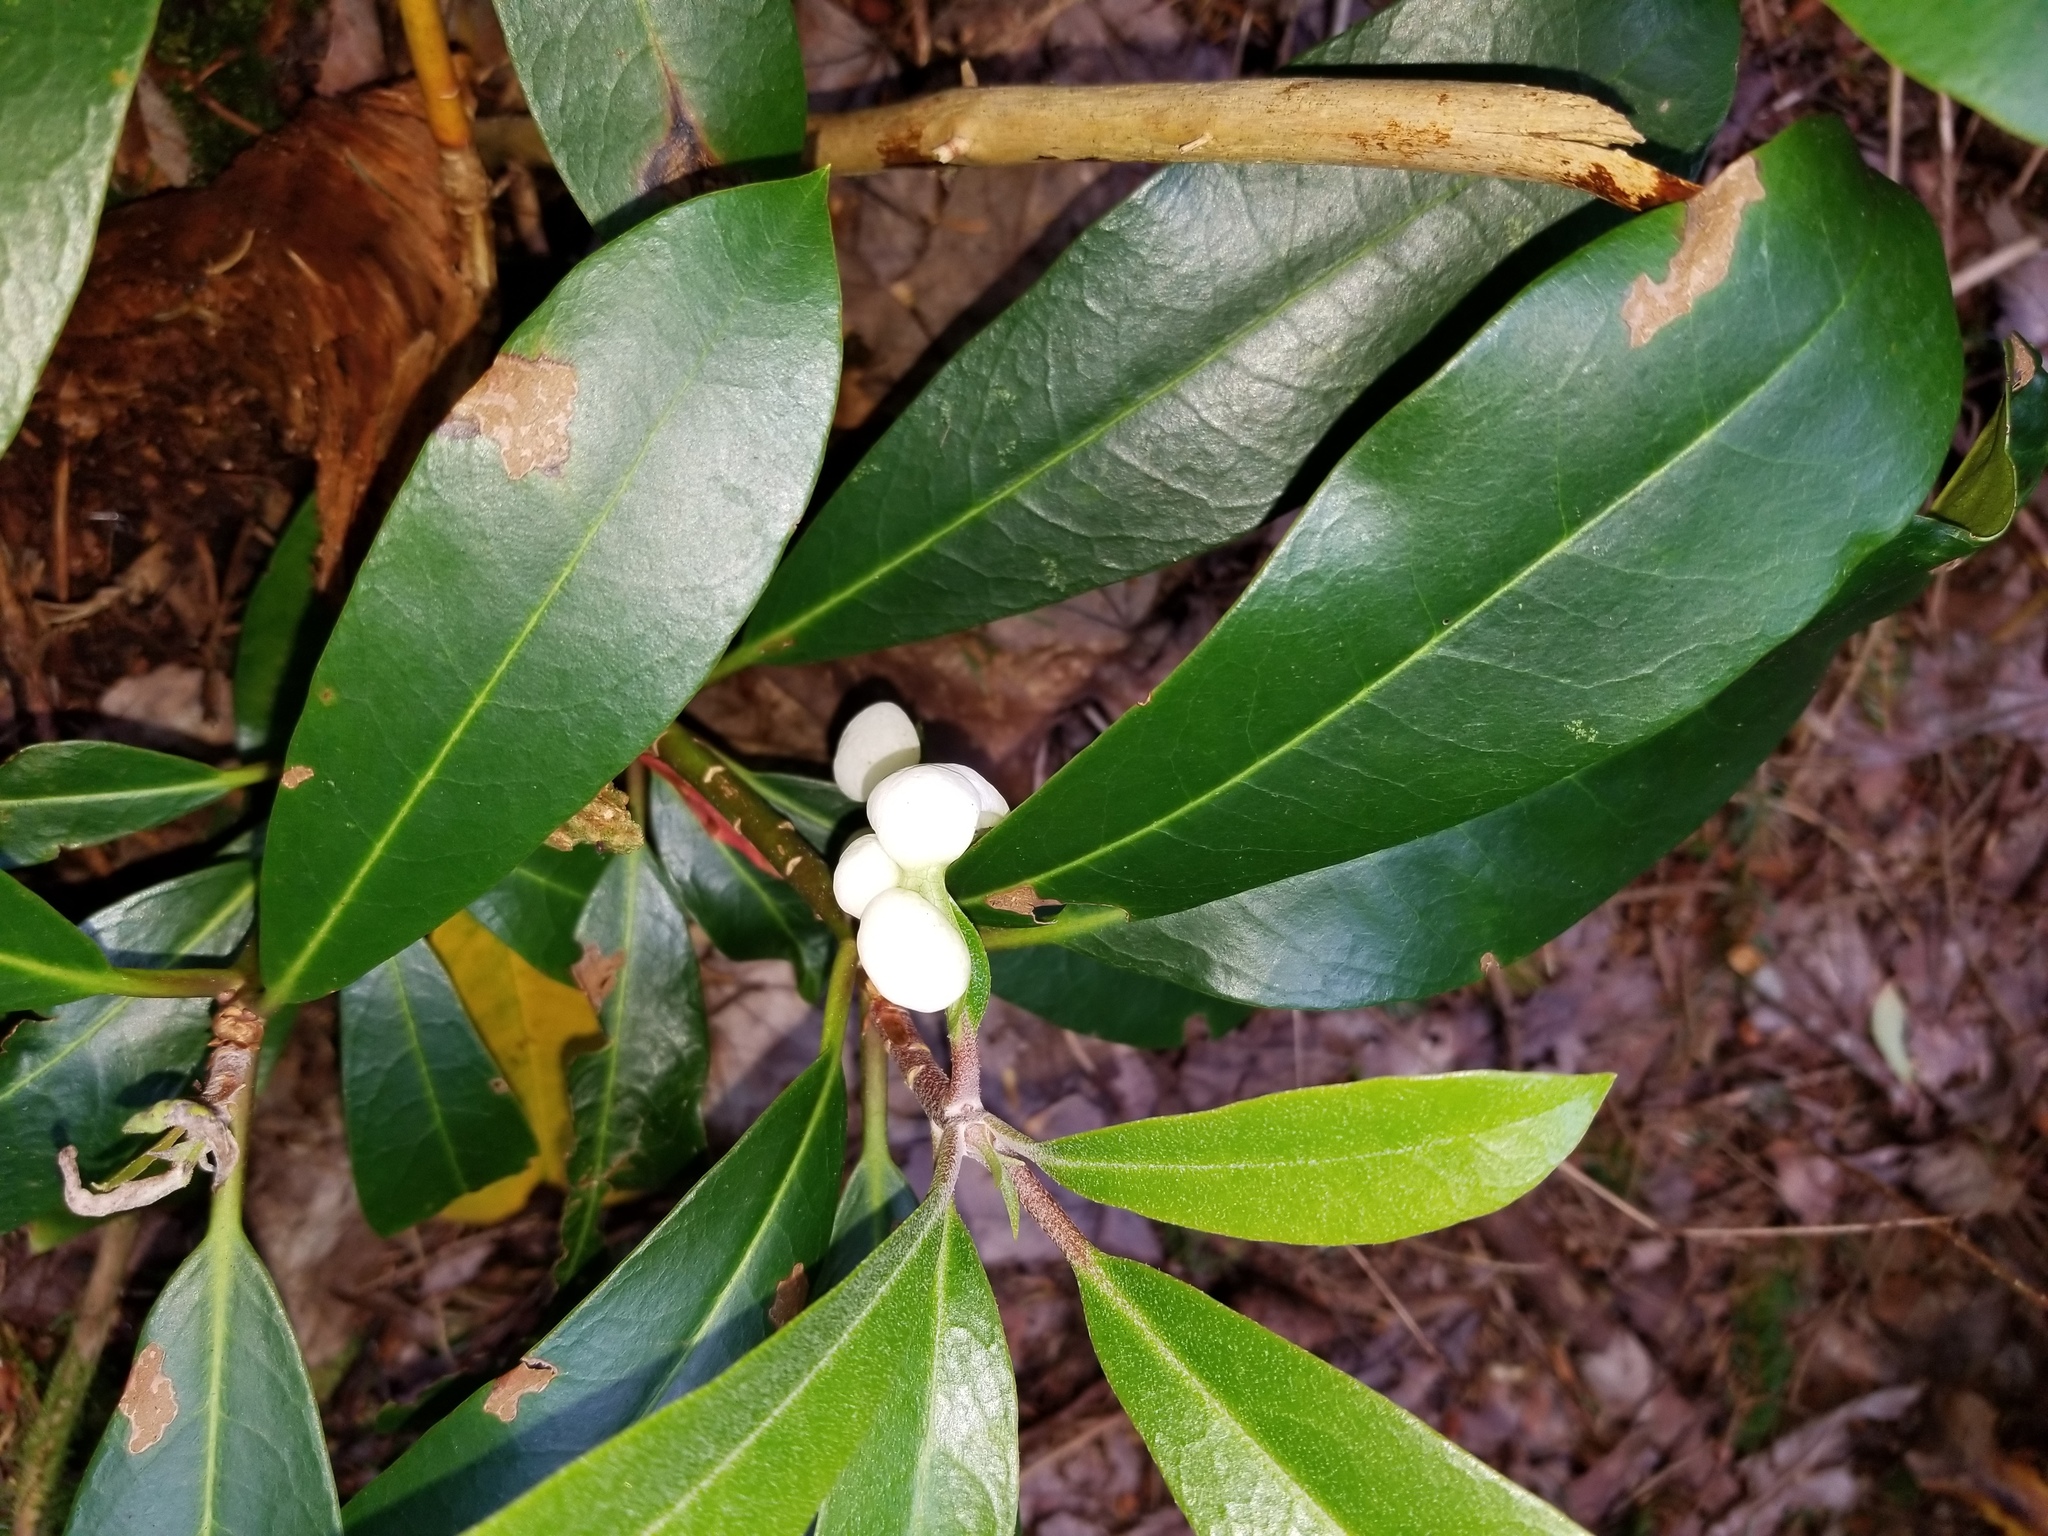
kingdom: Fungi
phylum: Basidiomycota
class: Exobasidiomycetes
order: Exobasidiales
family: Exobasidiaceae
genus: Exobasidium
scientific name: Exobasidium rhododendri
